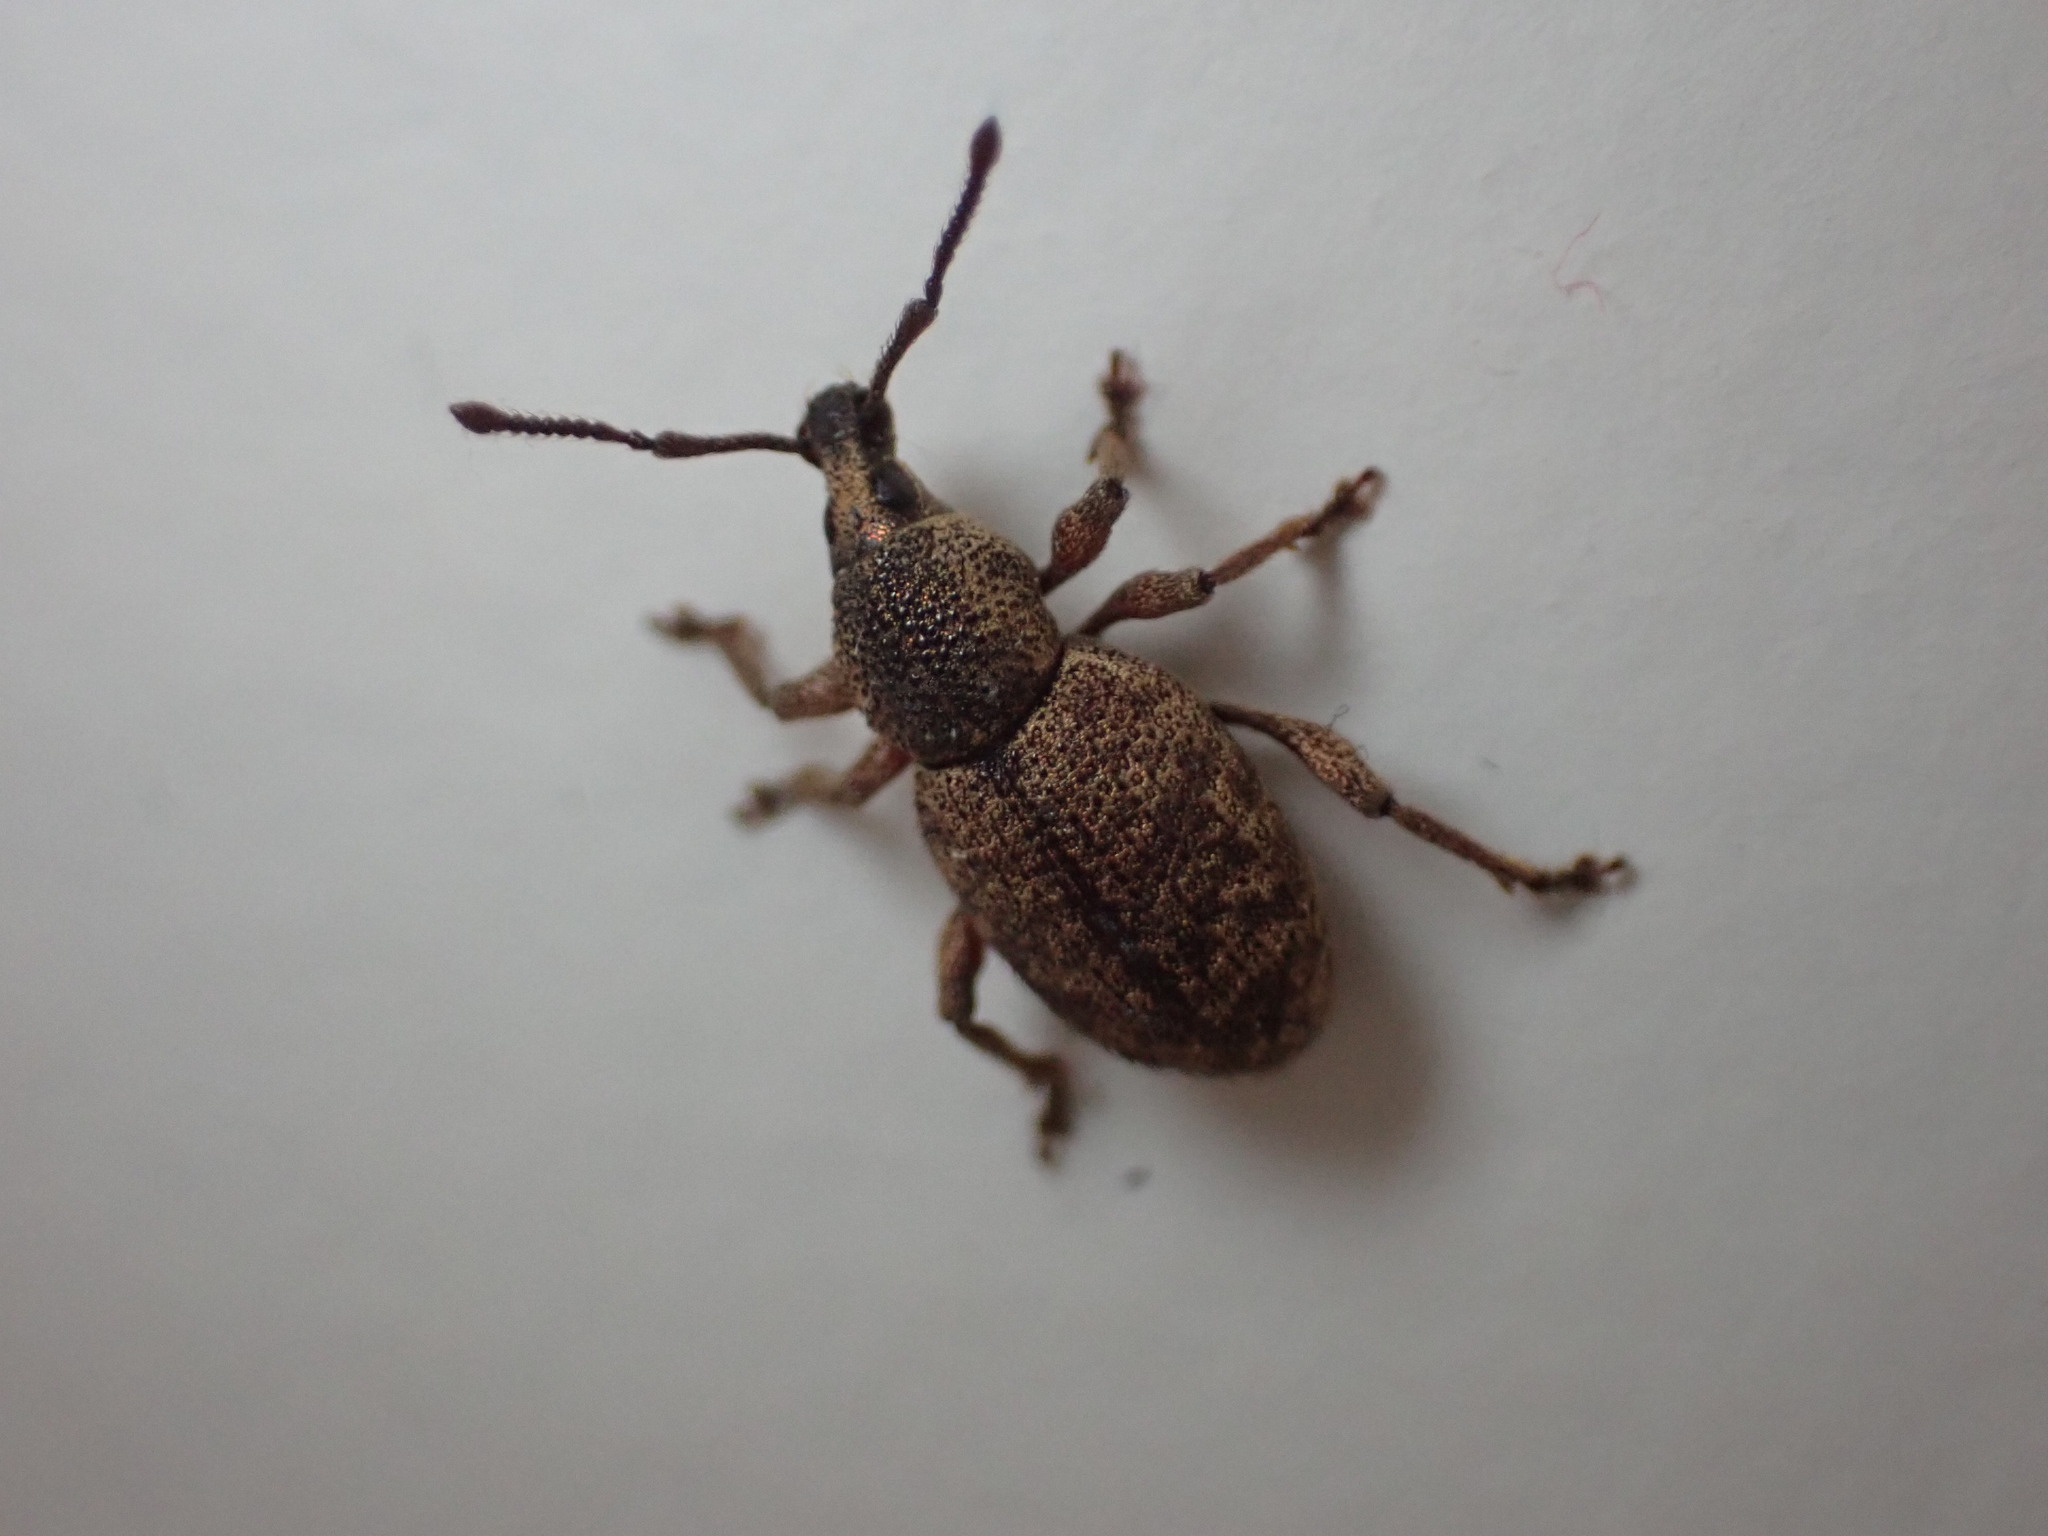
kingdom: Animalia
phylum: Arthropoda
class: Insecta
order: Coleoptera
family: Curculionidae
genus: Otiorhynchus
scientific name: Otiorhynchus singularis
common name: Clay-coloured weevil
